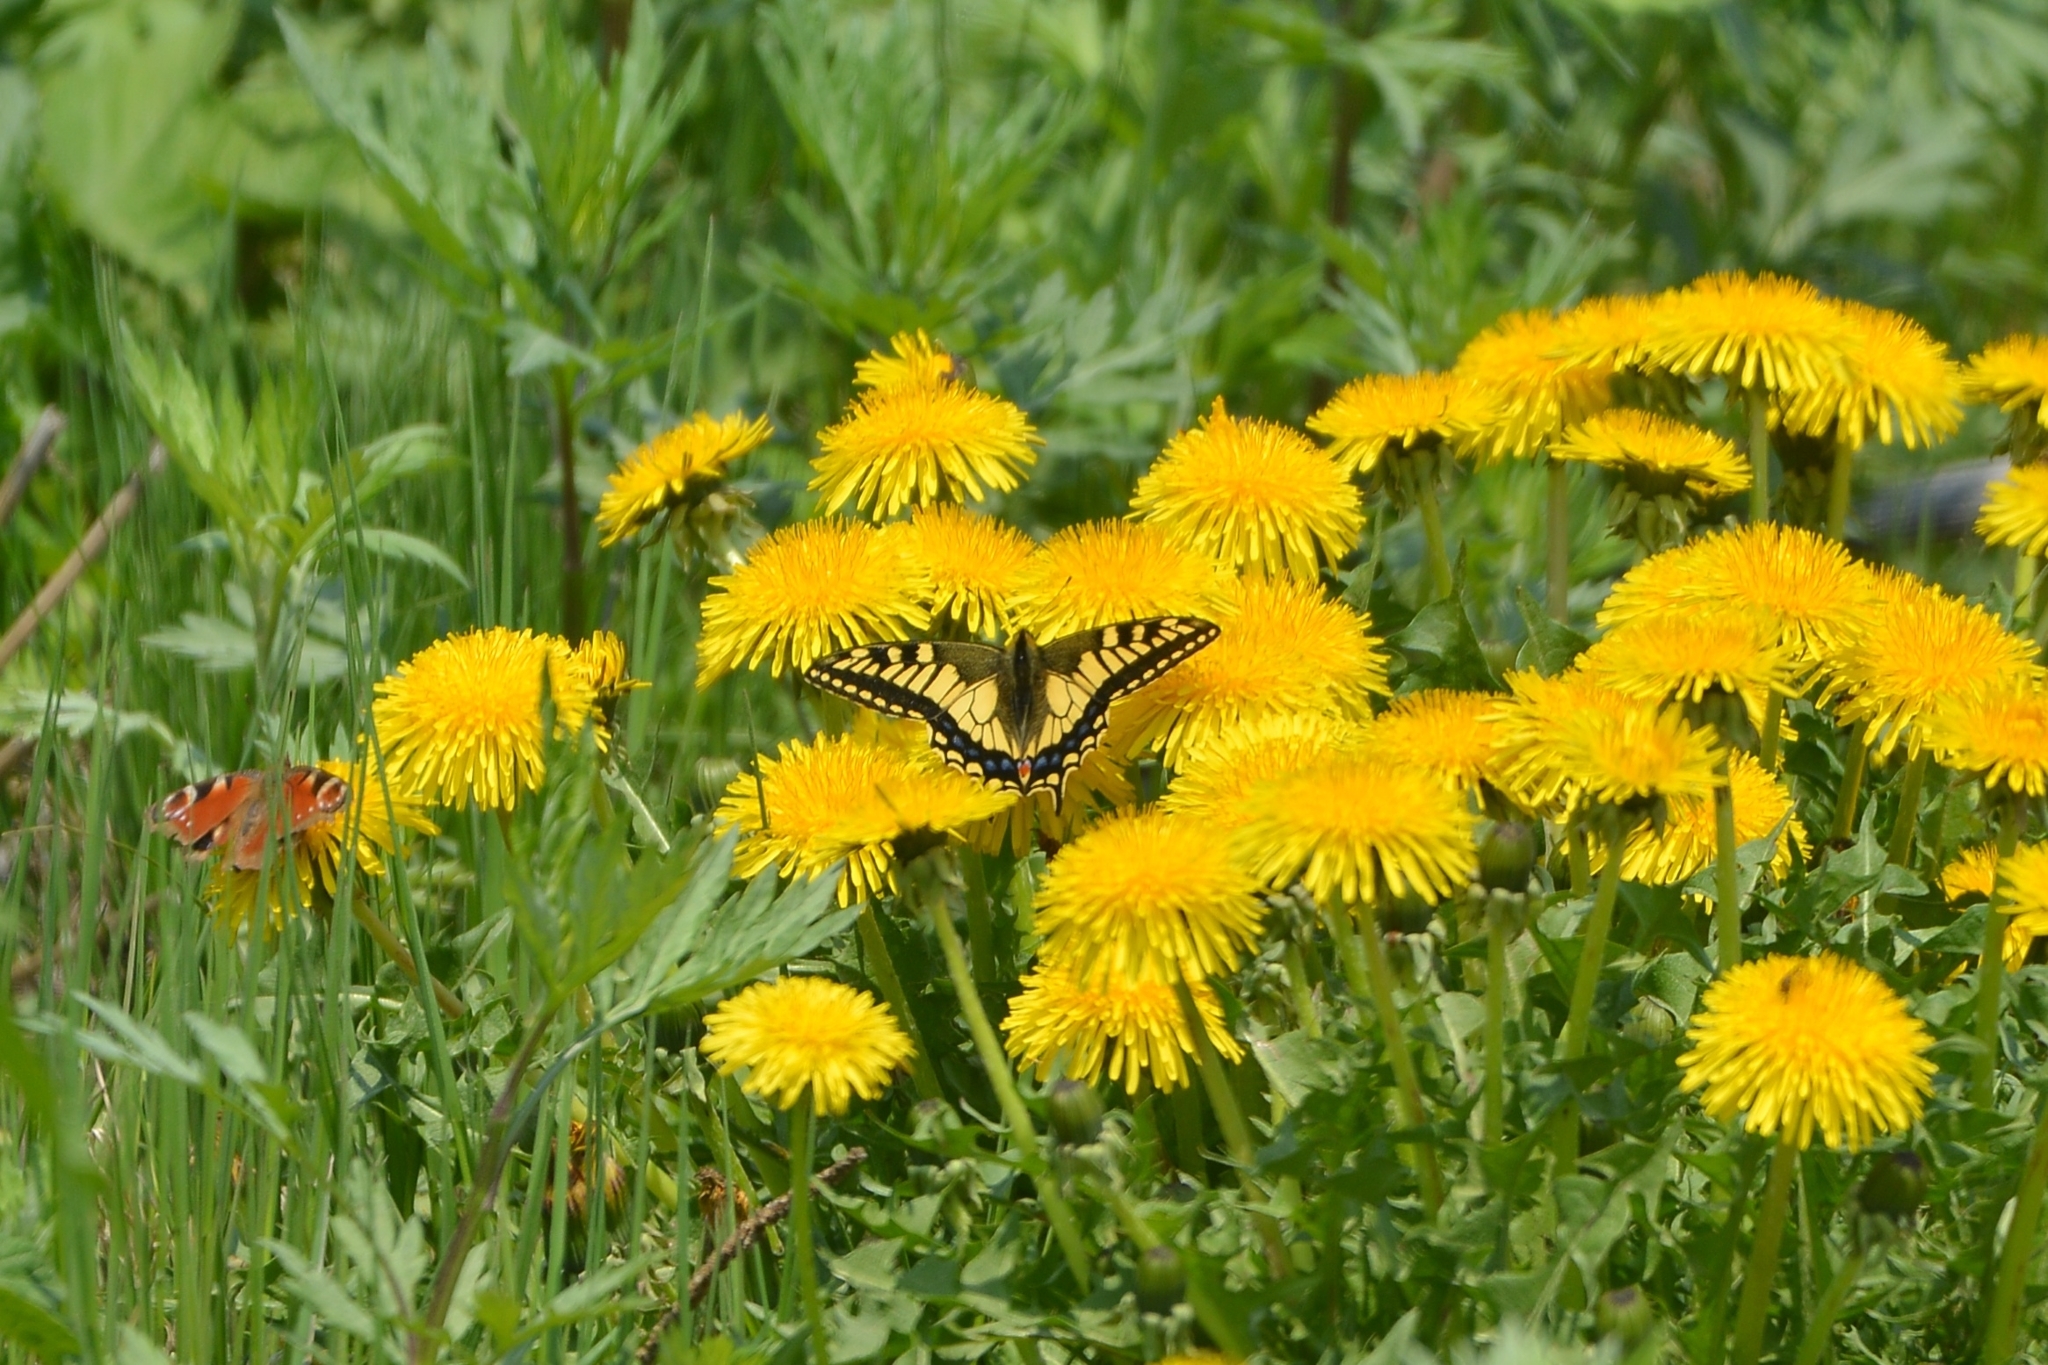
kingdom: Animalia
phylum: Arthropoda
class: Insecta
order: Lepidoptera
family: Papilionidae
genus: Papilio
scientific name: Papilio machaon
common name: Swallowtail
